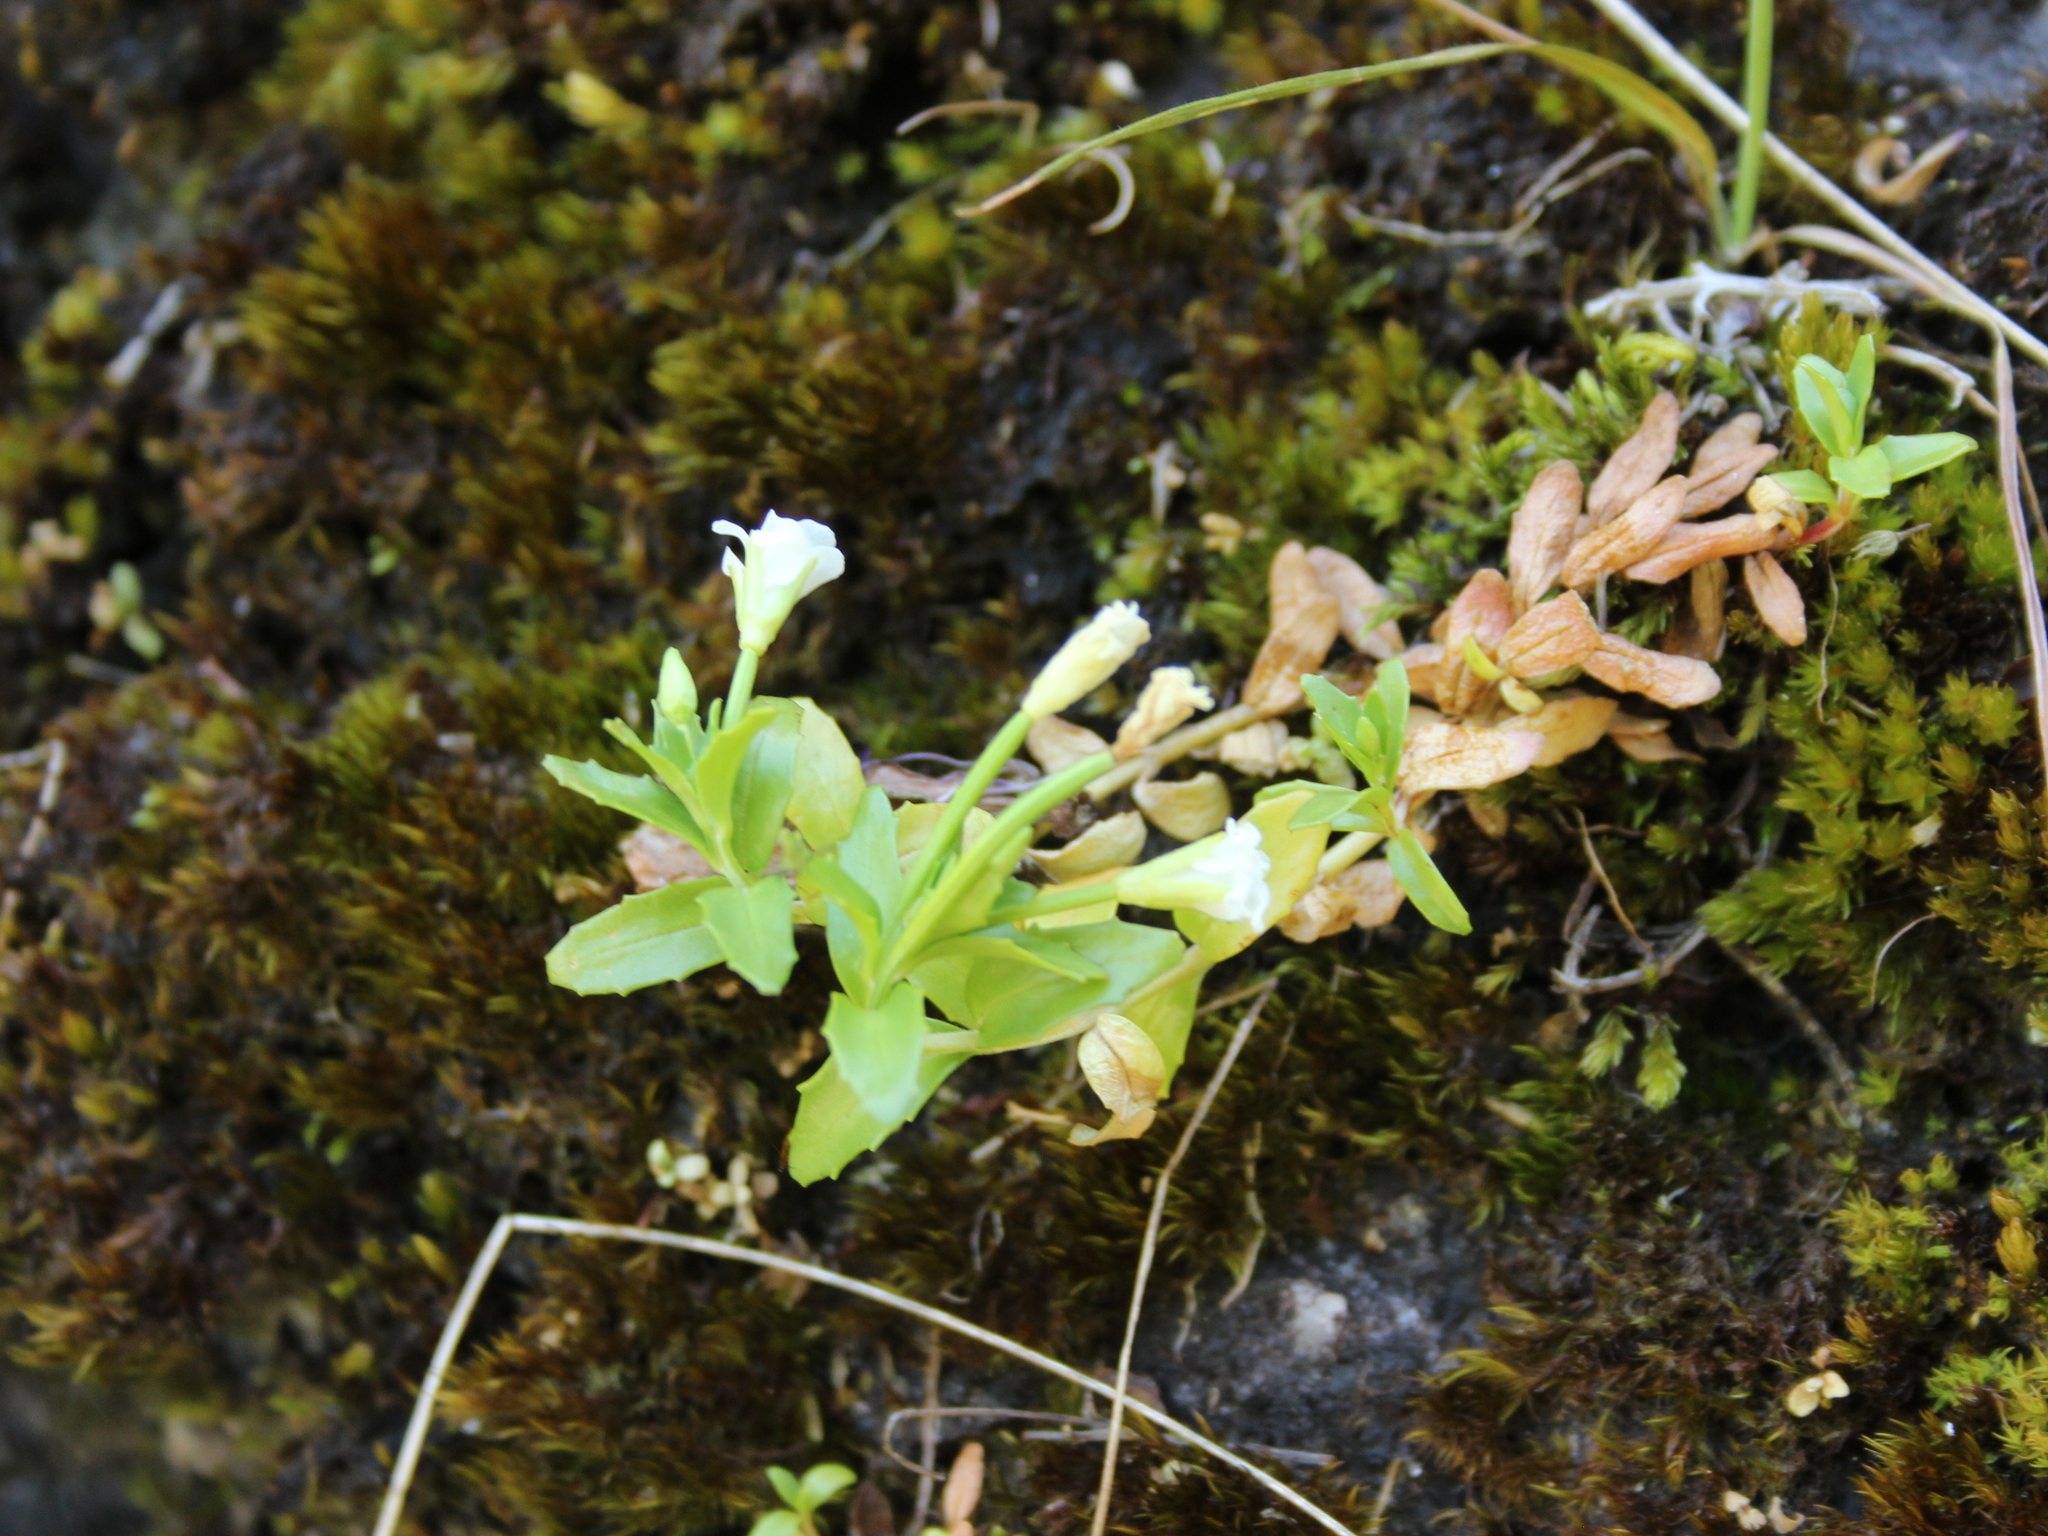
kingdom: Plantae
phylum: Tracheophyta
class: Magnoliopsida
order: Myrtales
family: Onagraceae
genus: Epilobium
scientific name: Epilobium glabellum
